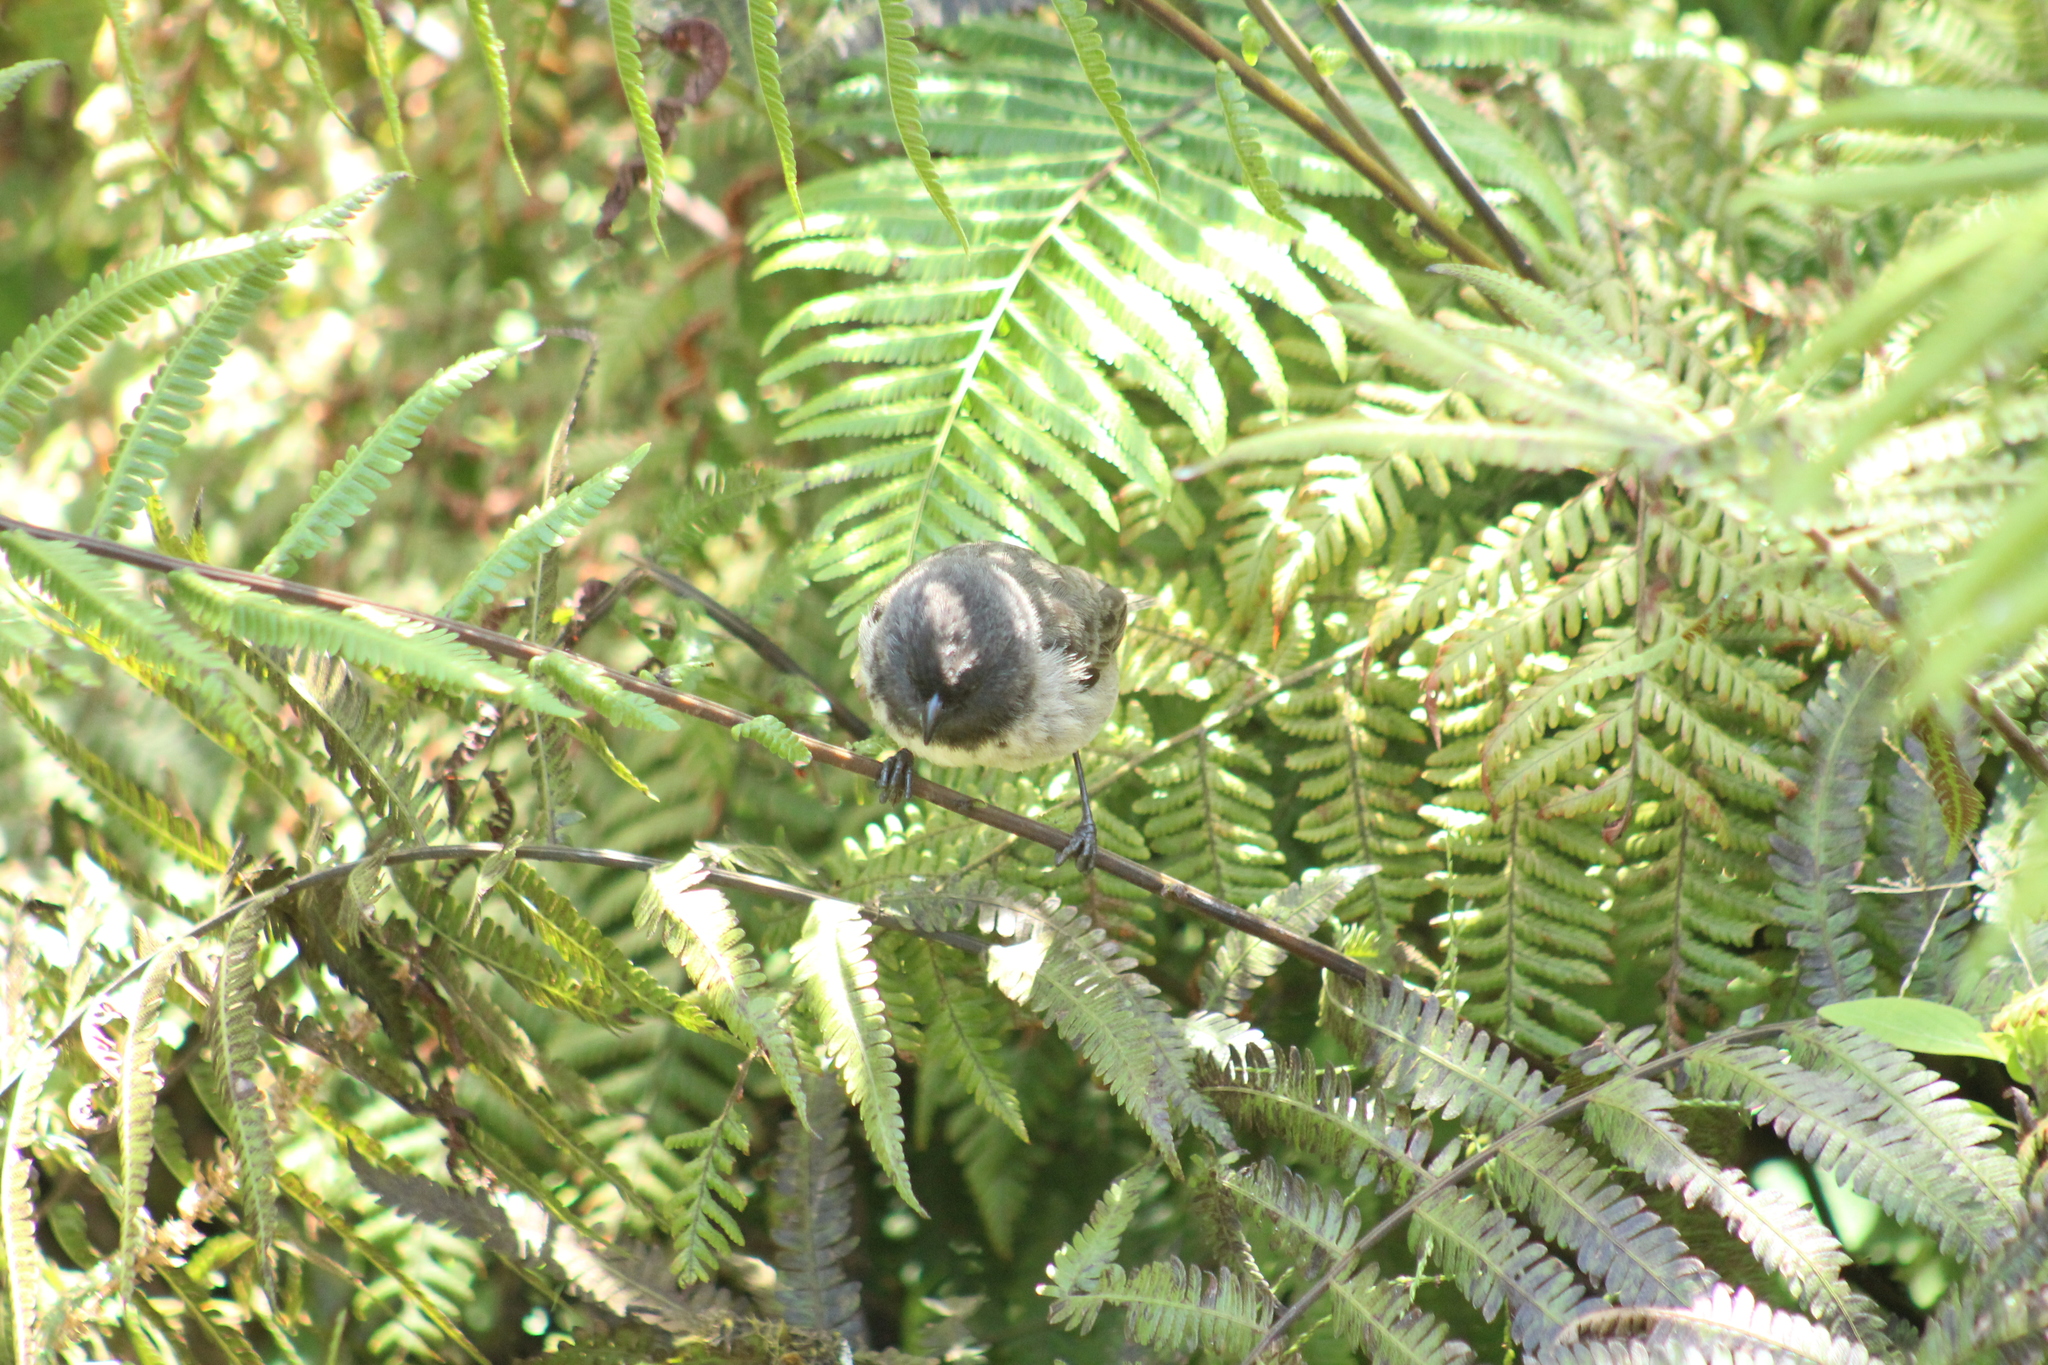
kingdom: Animalia
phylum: Chordata
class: Aves
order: Passeriformes
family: Thraupidae
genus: Geospiza
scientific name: Geospiza fuliginosa
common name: Small ground finch
